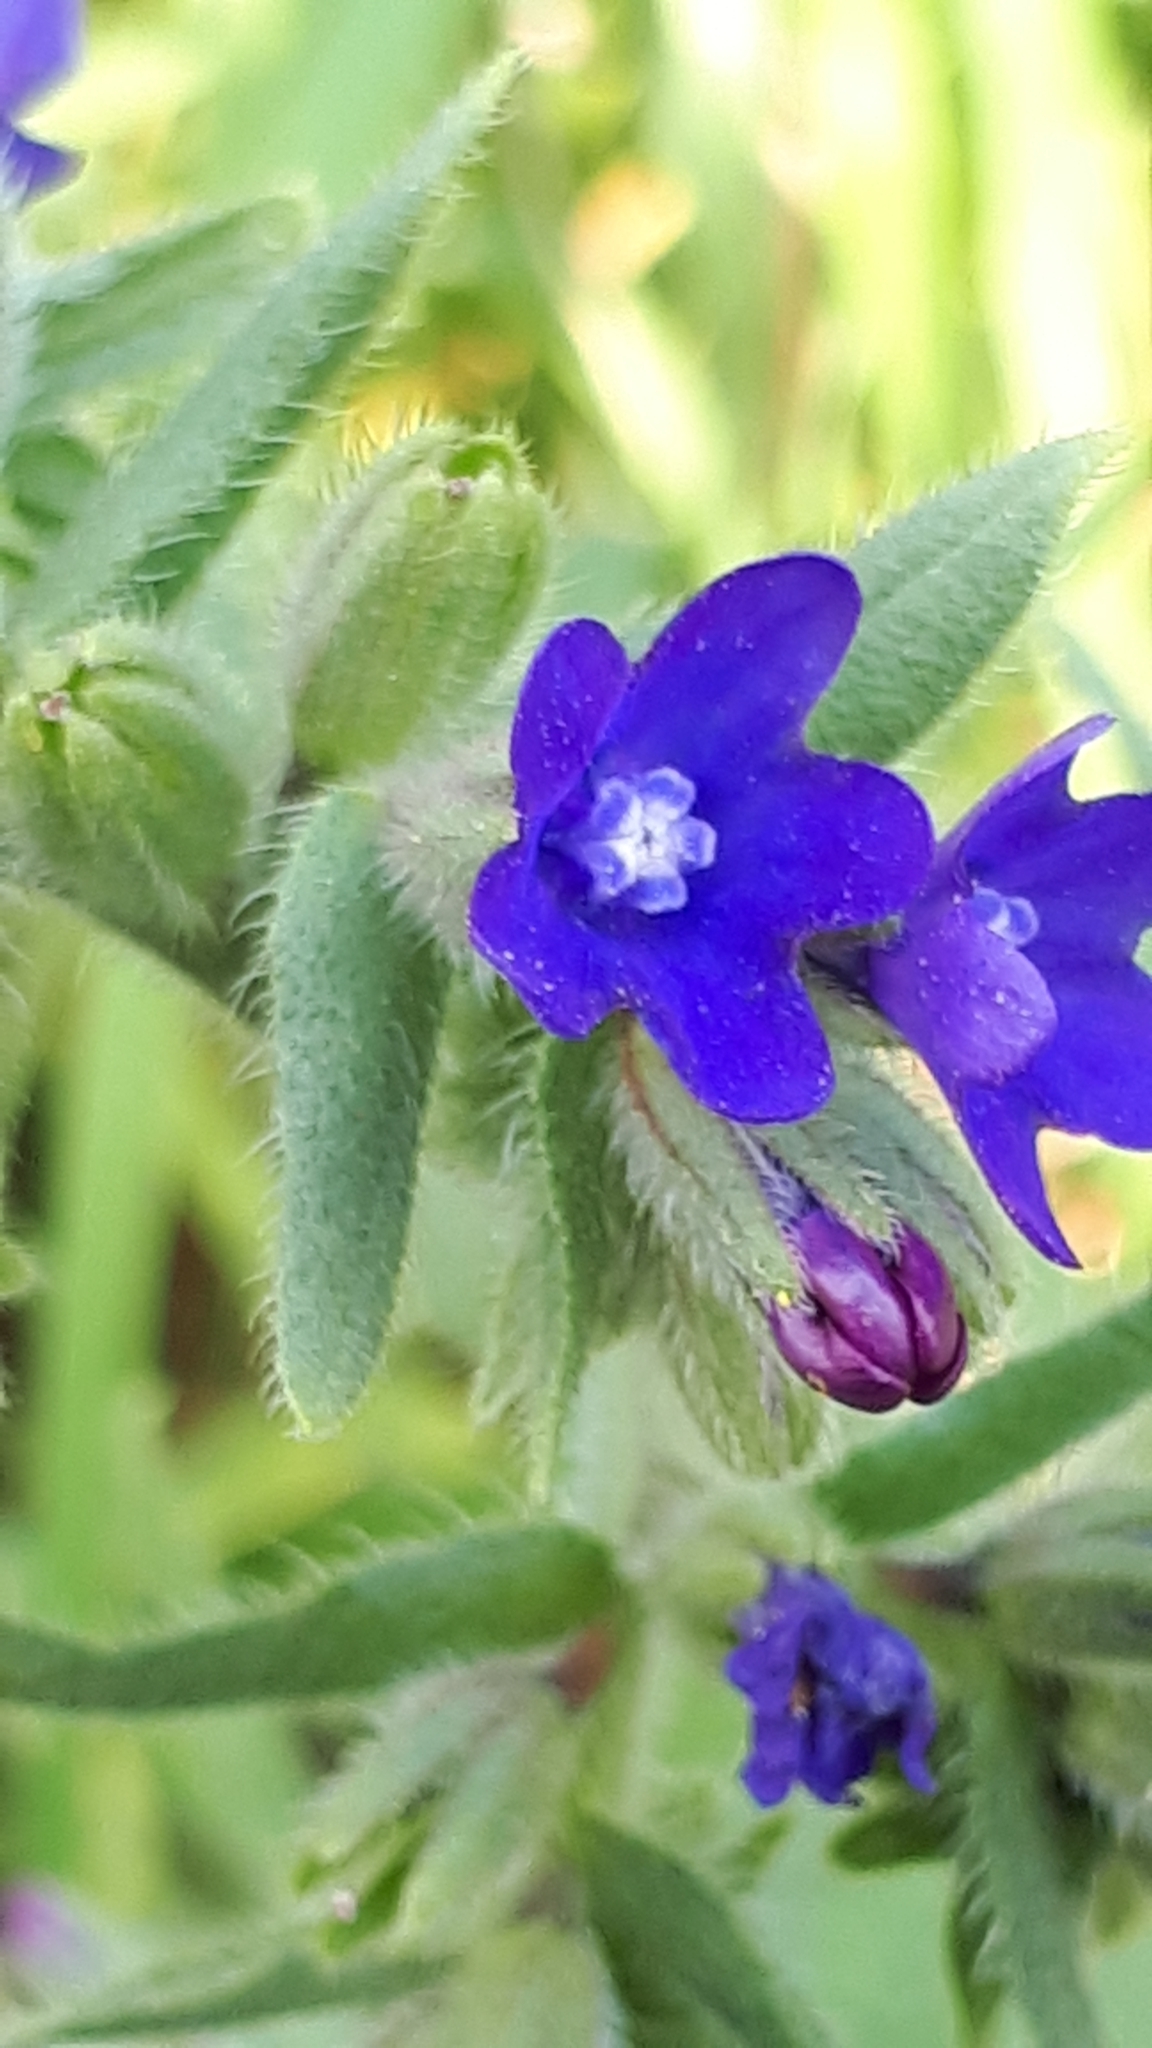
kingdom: Plantae
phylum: Tracheophyta
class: Magnoliopsida
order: Boraginales
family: Boraginaceae
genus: Anchusa
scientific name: Anchusa officinalis
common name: Alkanet
